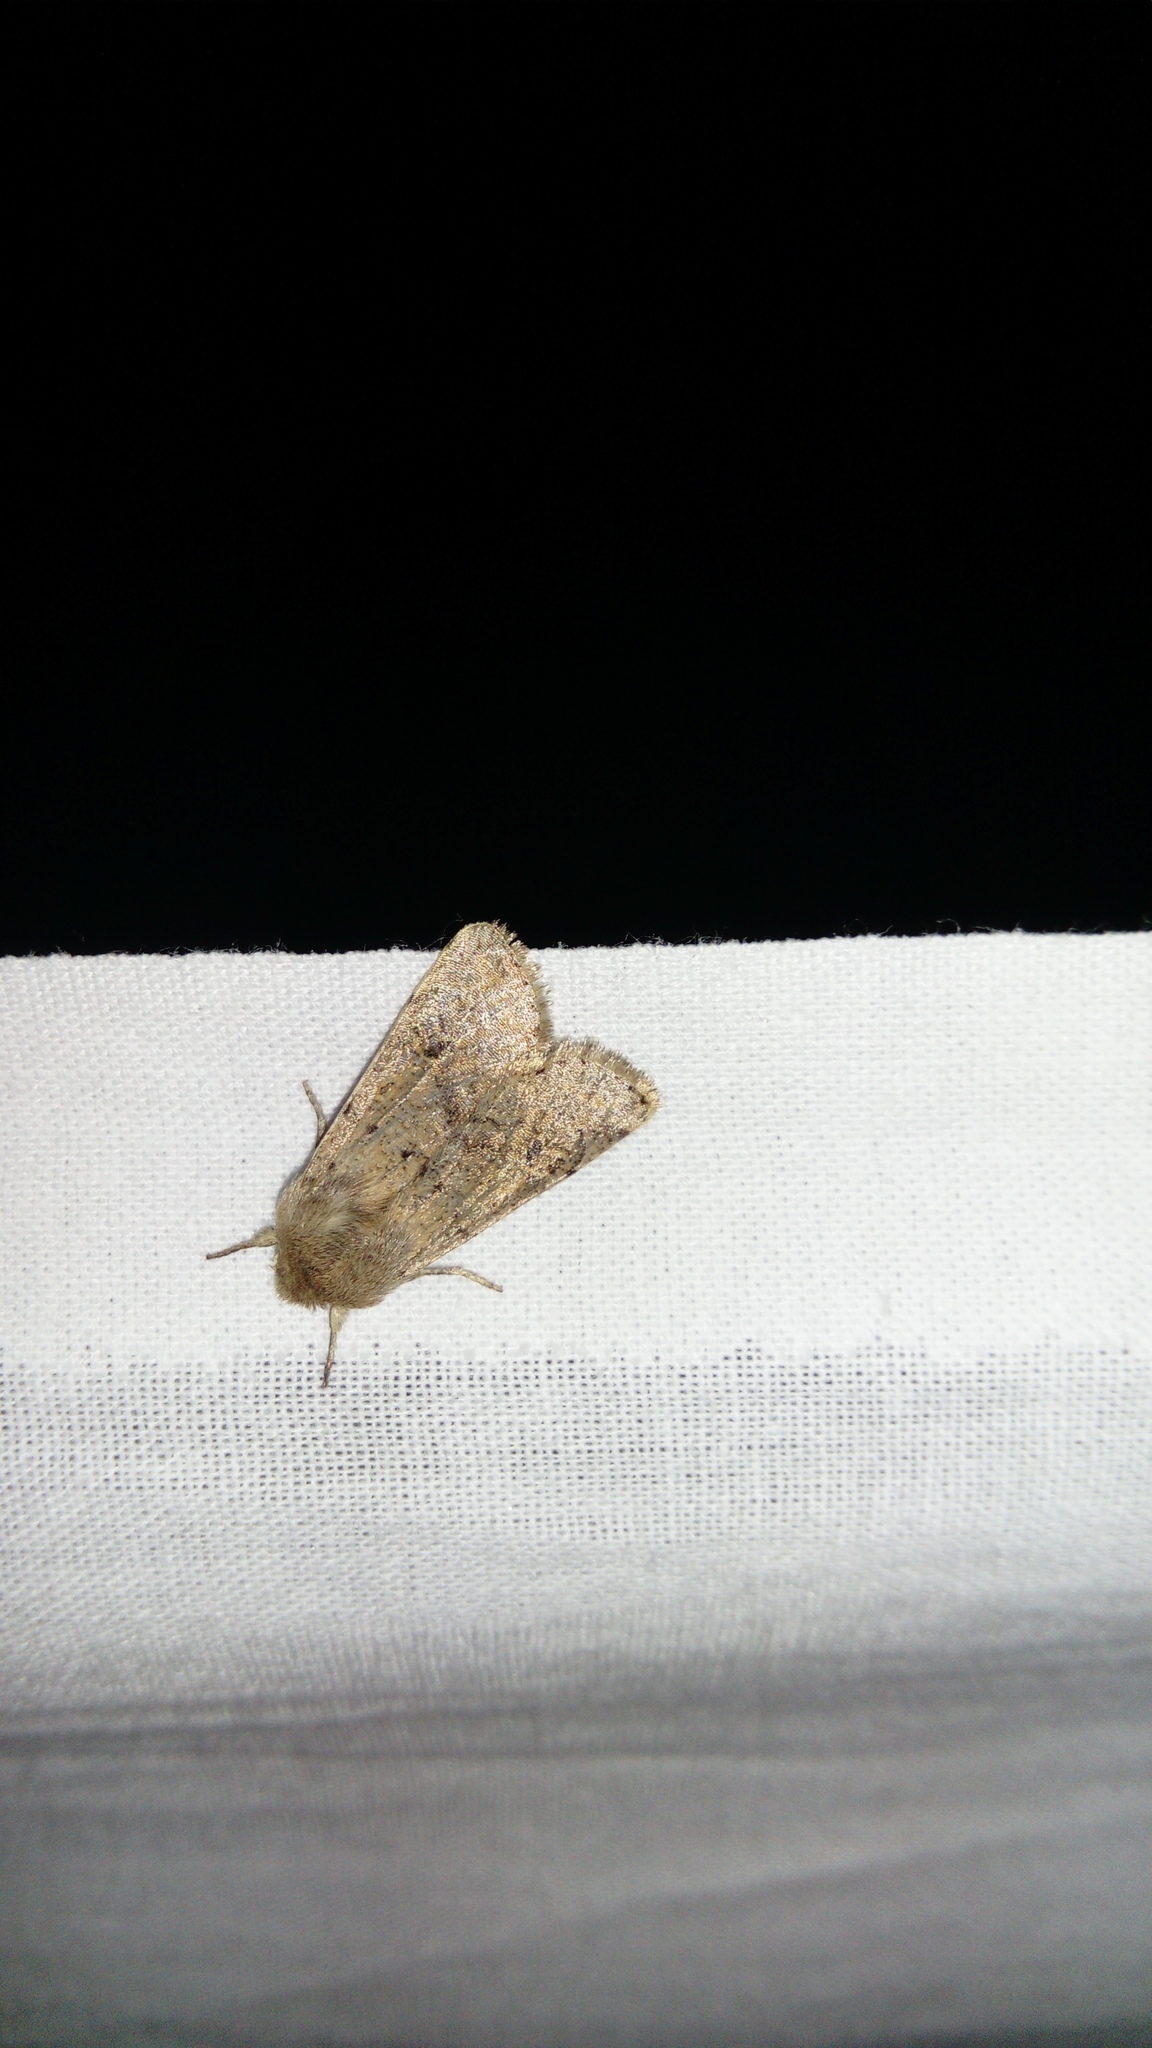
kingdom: Animalia
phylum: Arthropoda
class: Insecta
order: Lepidoptera
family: Noctuidae
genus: Orthosia
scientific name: Orthosia cruda
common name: Small quaker
